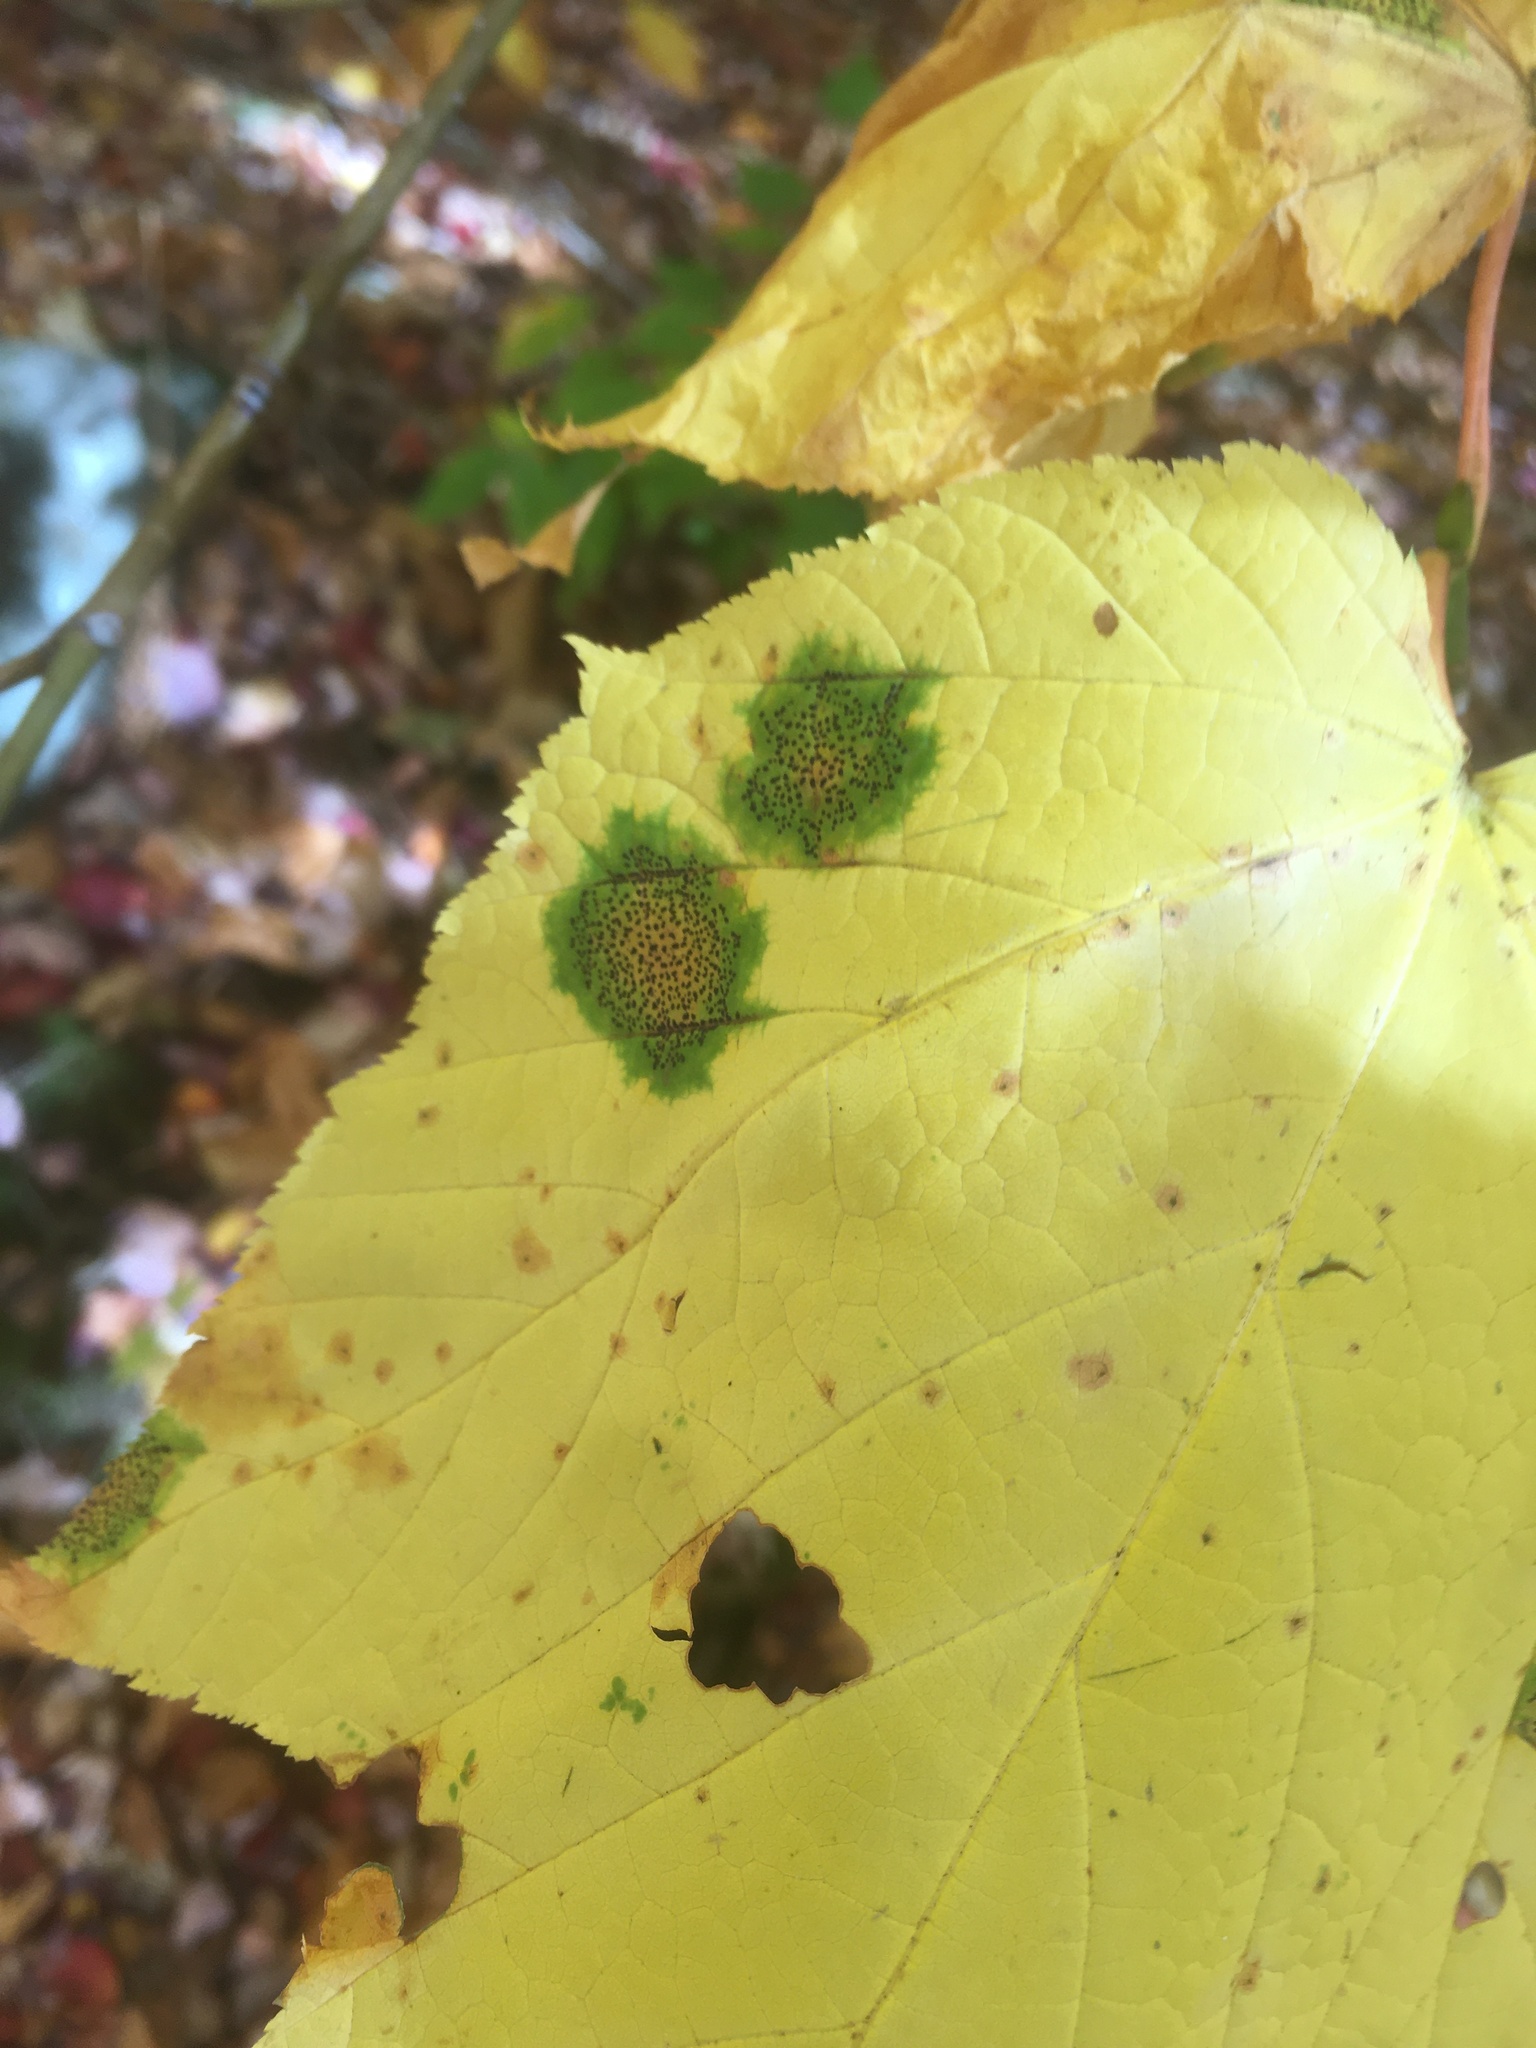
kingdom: Fungi
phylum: Ascomycota
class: Leotiomycetes
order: Rhytismatales
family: Rhytismataceae
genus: Rhytisma
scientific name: Rhytisma punctatum
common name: Speckled tar spot
